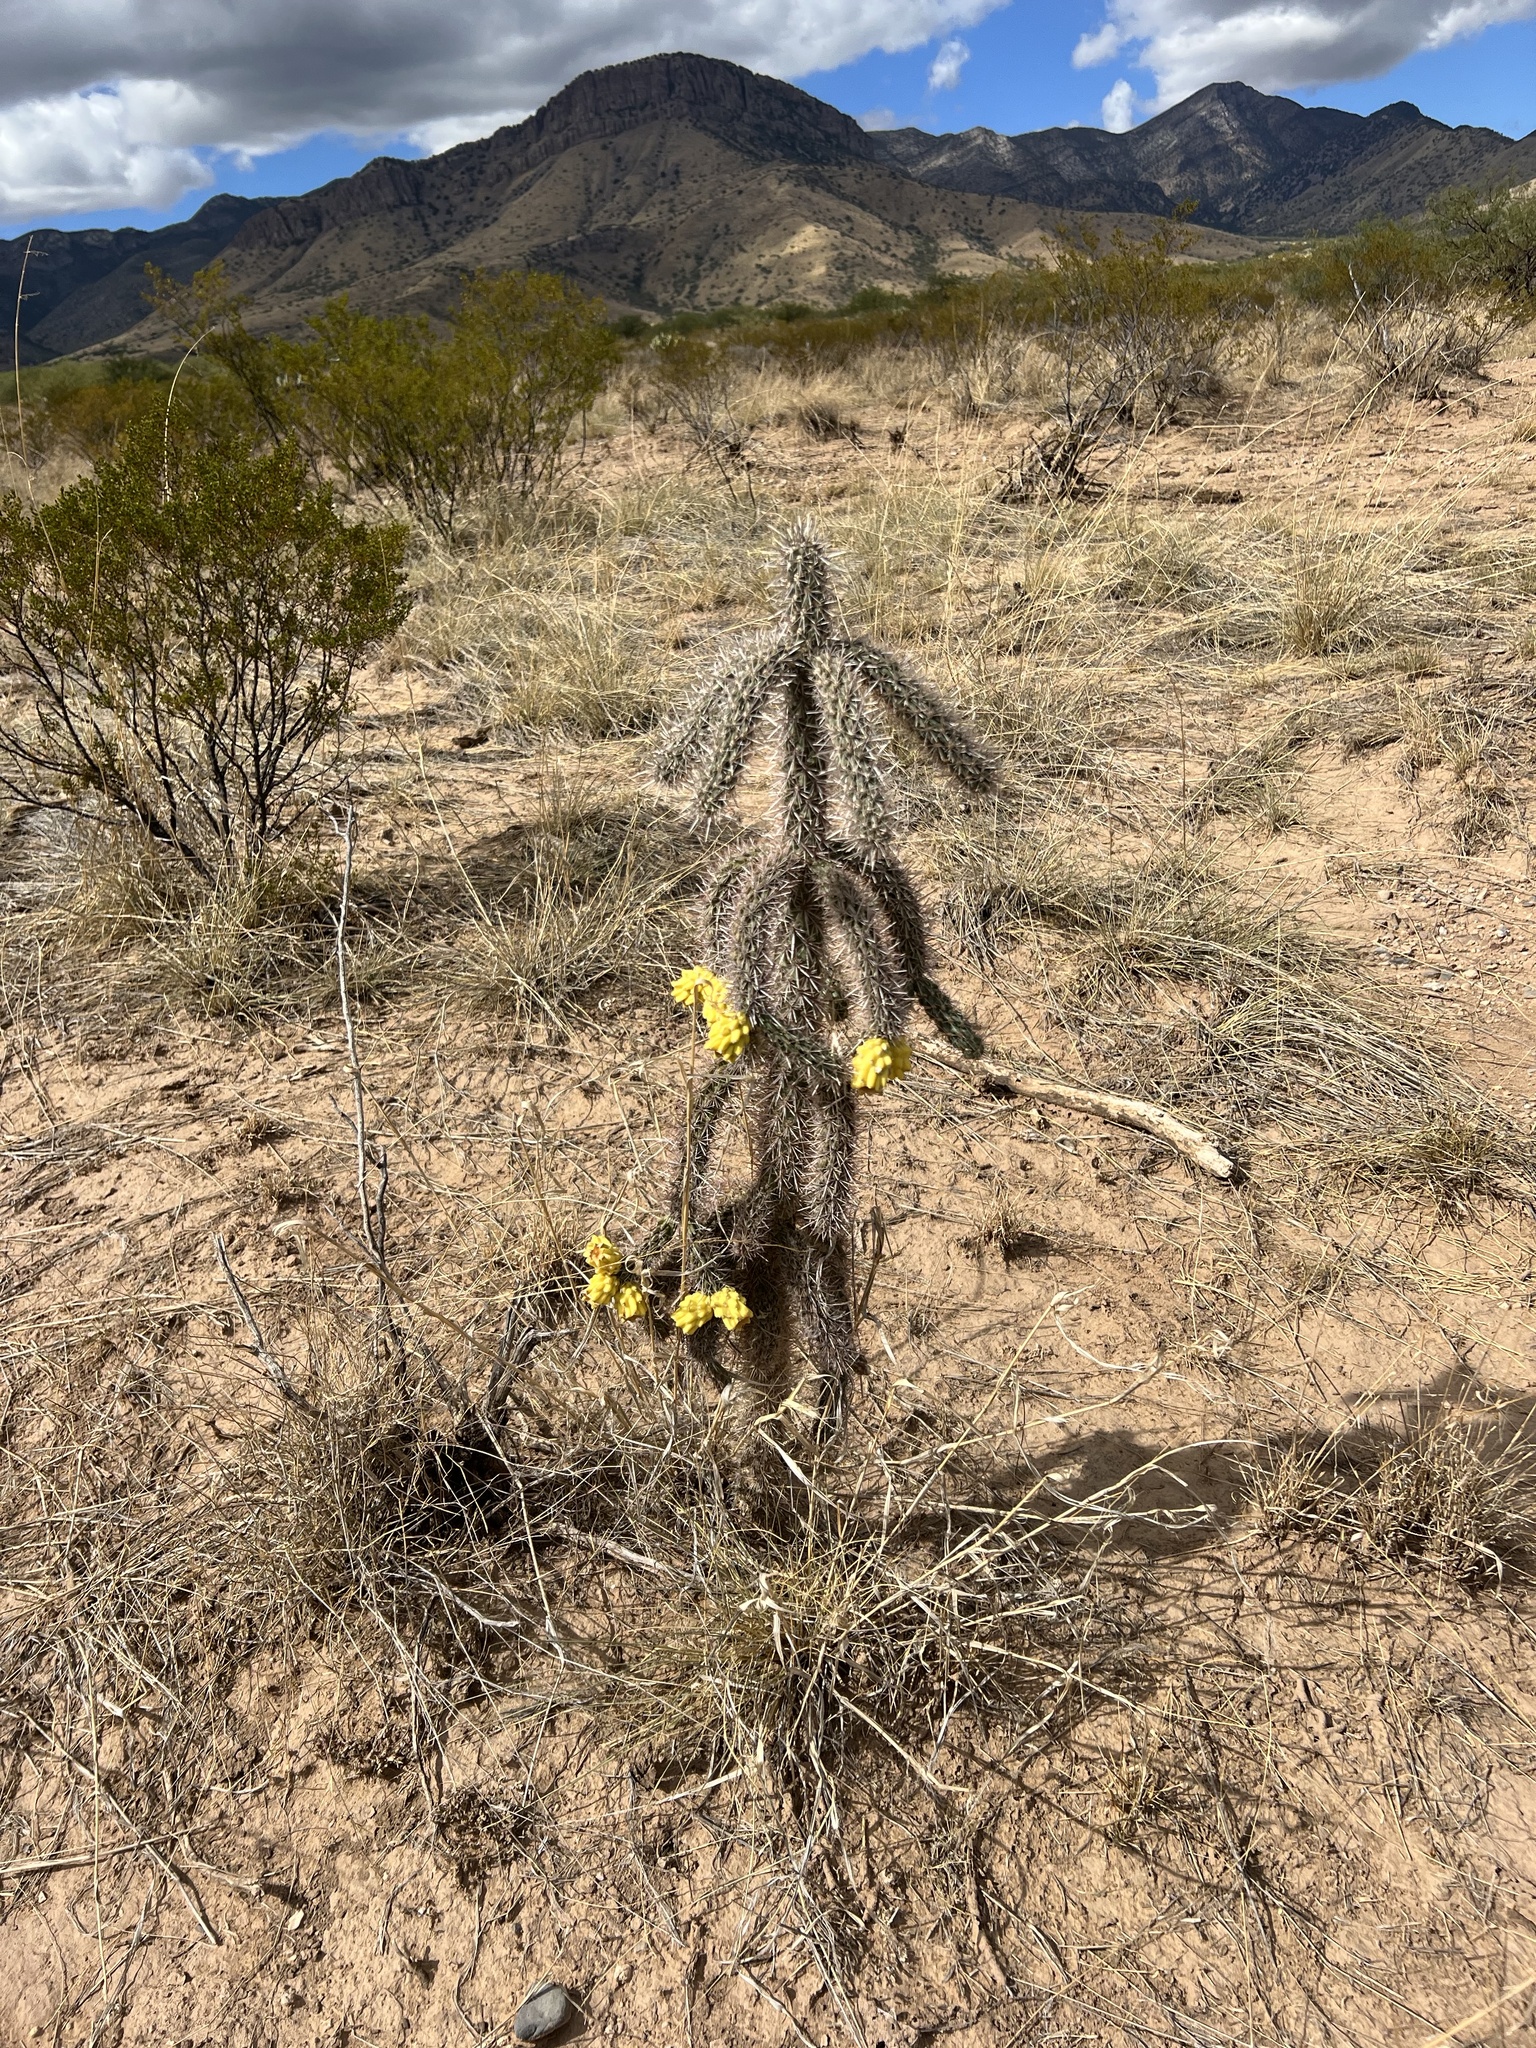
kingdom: Plantae
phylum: Tracheophyta
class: Magnoliopsida
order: Caryophyllales
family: Cactaceae
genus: Cylindropuntia
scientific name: Cylindropuntia imbricata
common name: Candelabrum cactus
